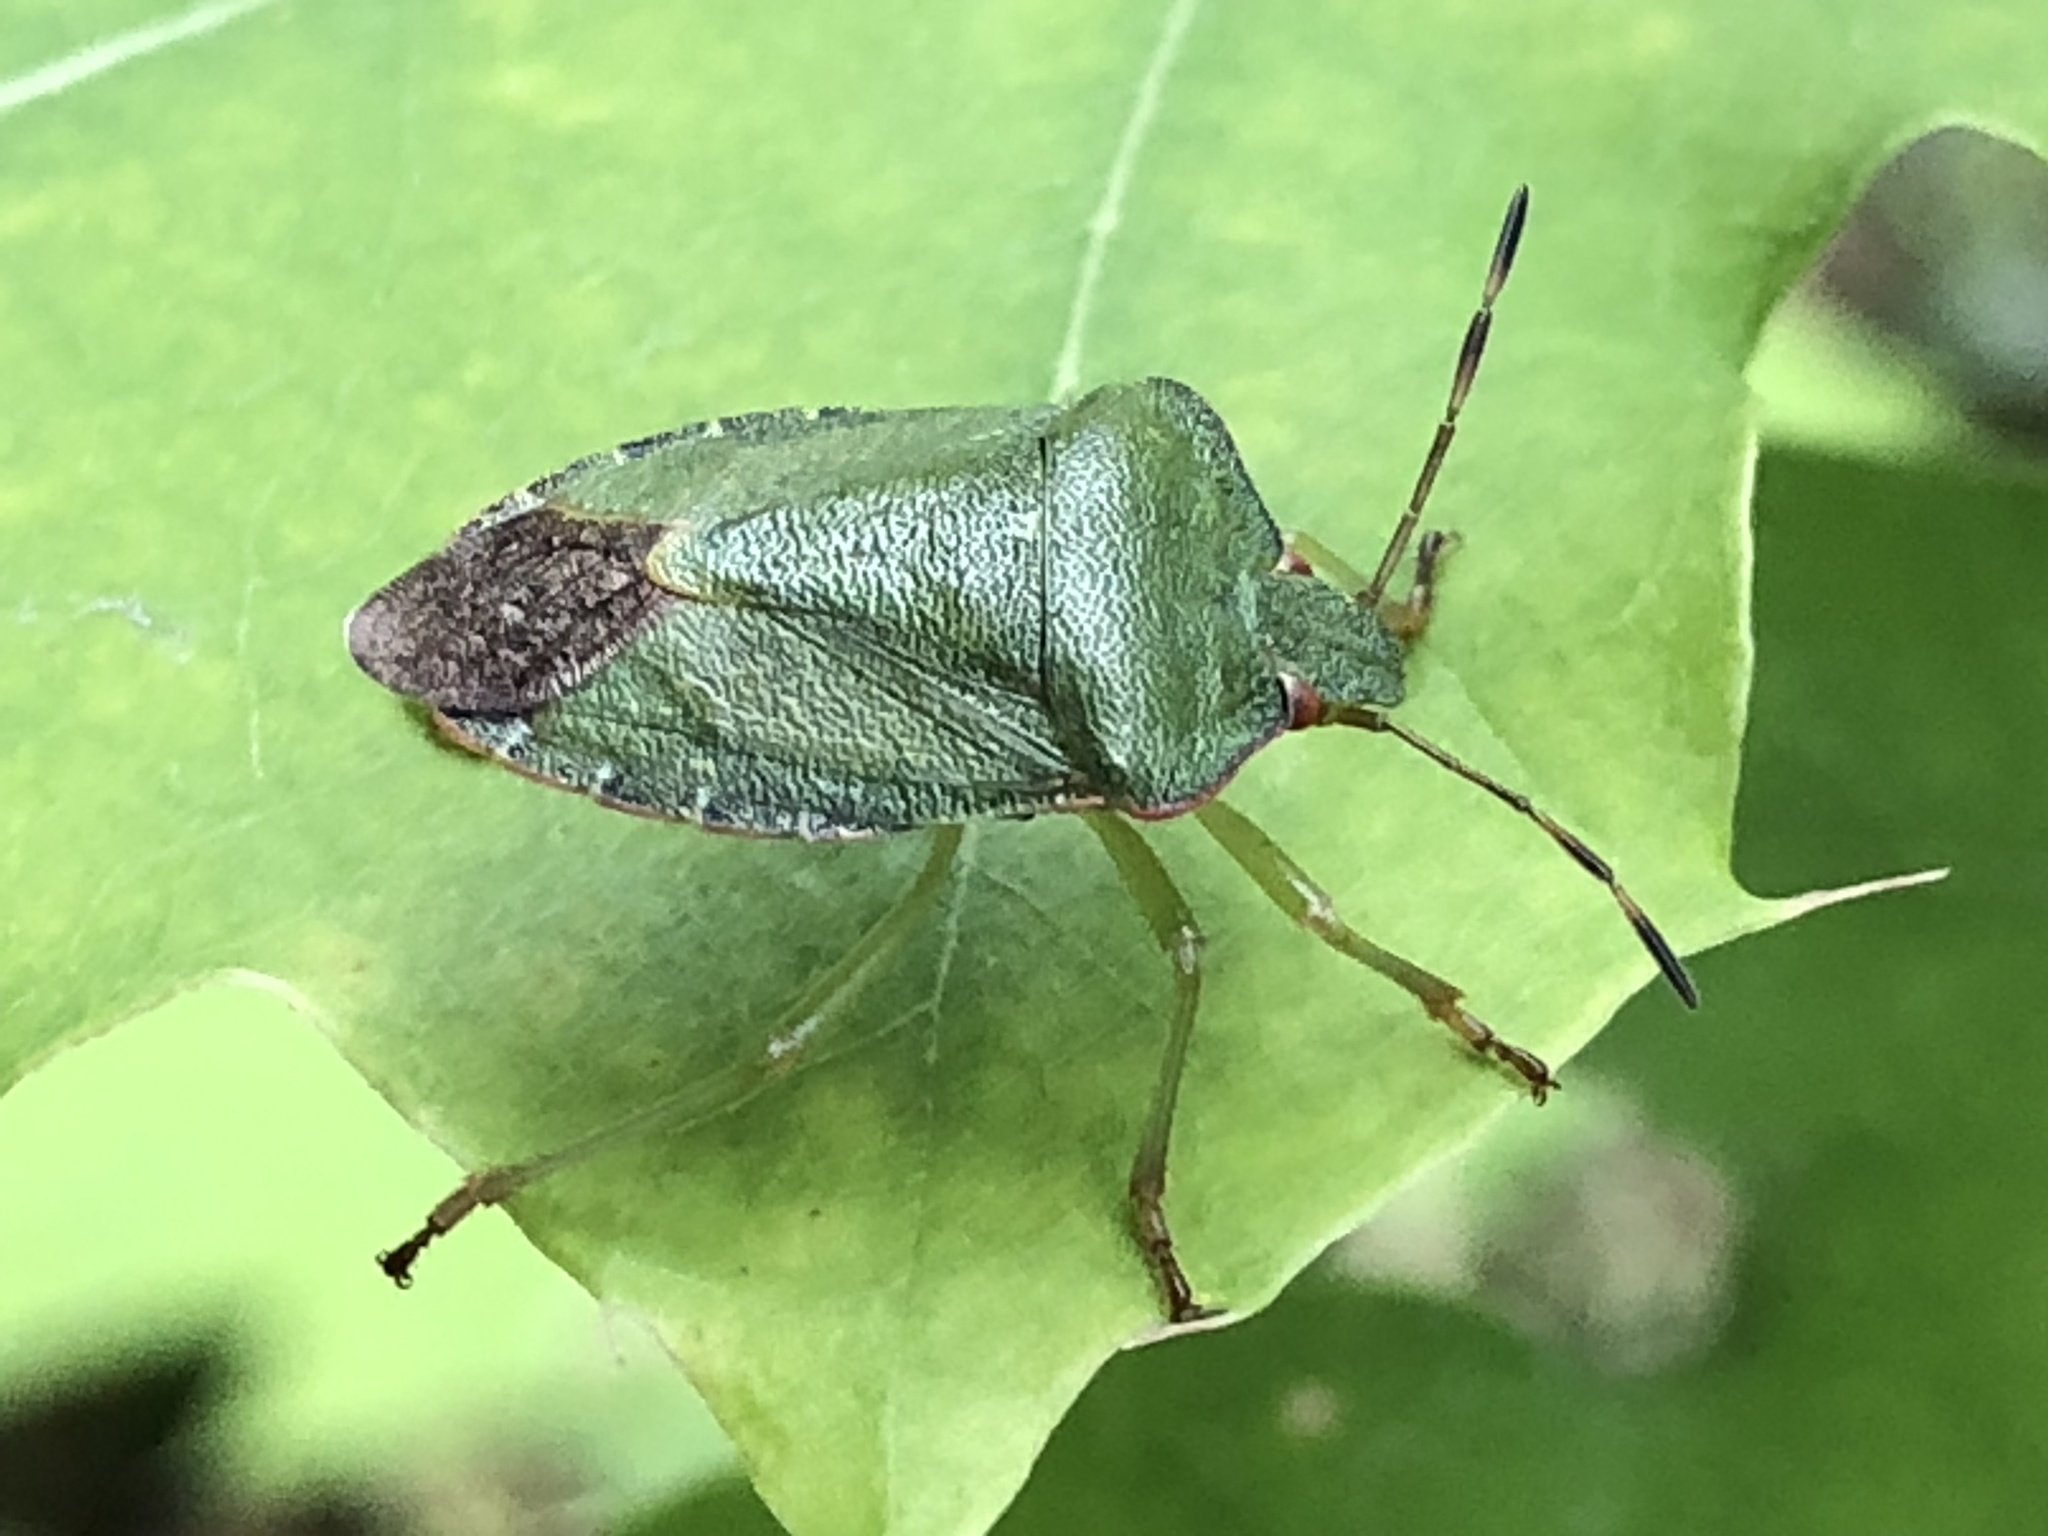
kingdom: Animalia
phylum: Arthropoda
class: Insecta
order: Hemiptera
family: Pentatomidae
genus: Palomena
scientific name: Palomena prasina
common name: Green shieldbug
